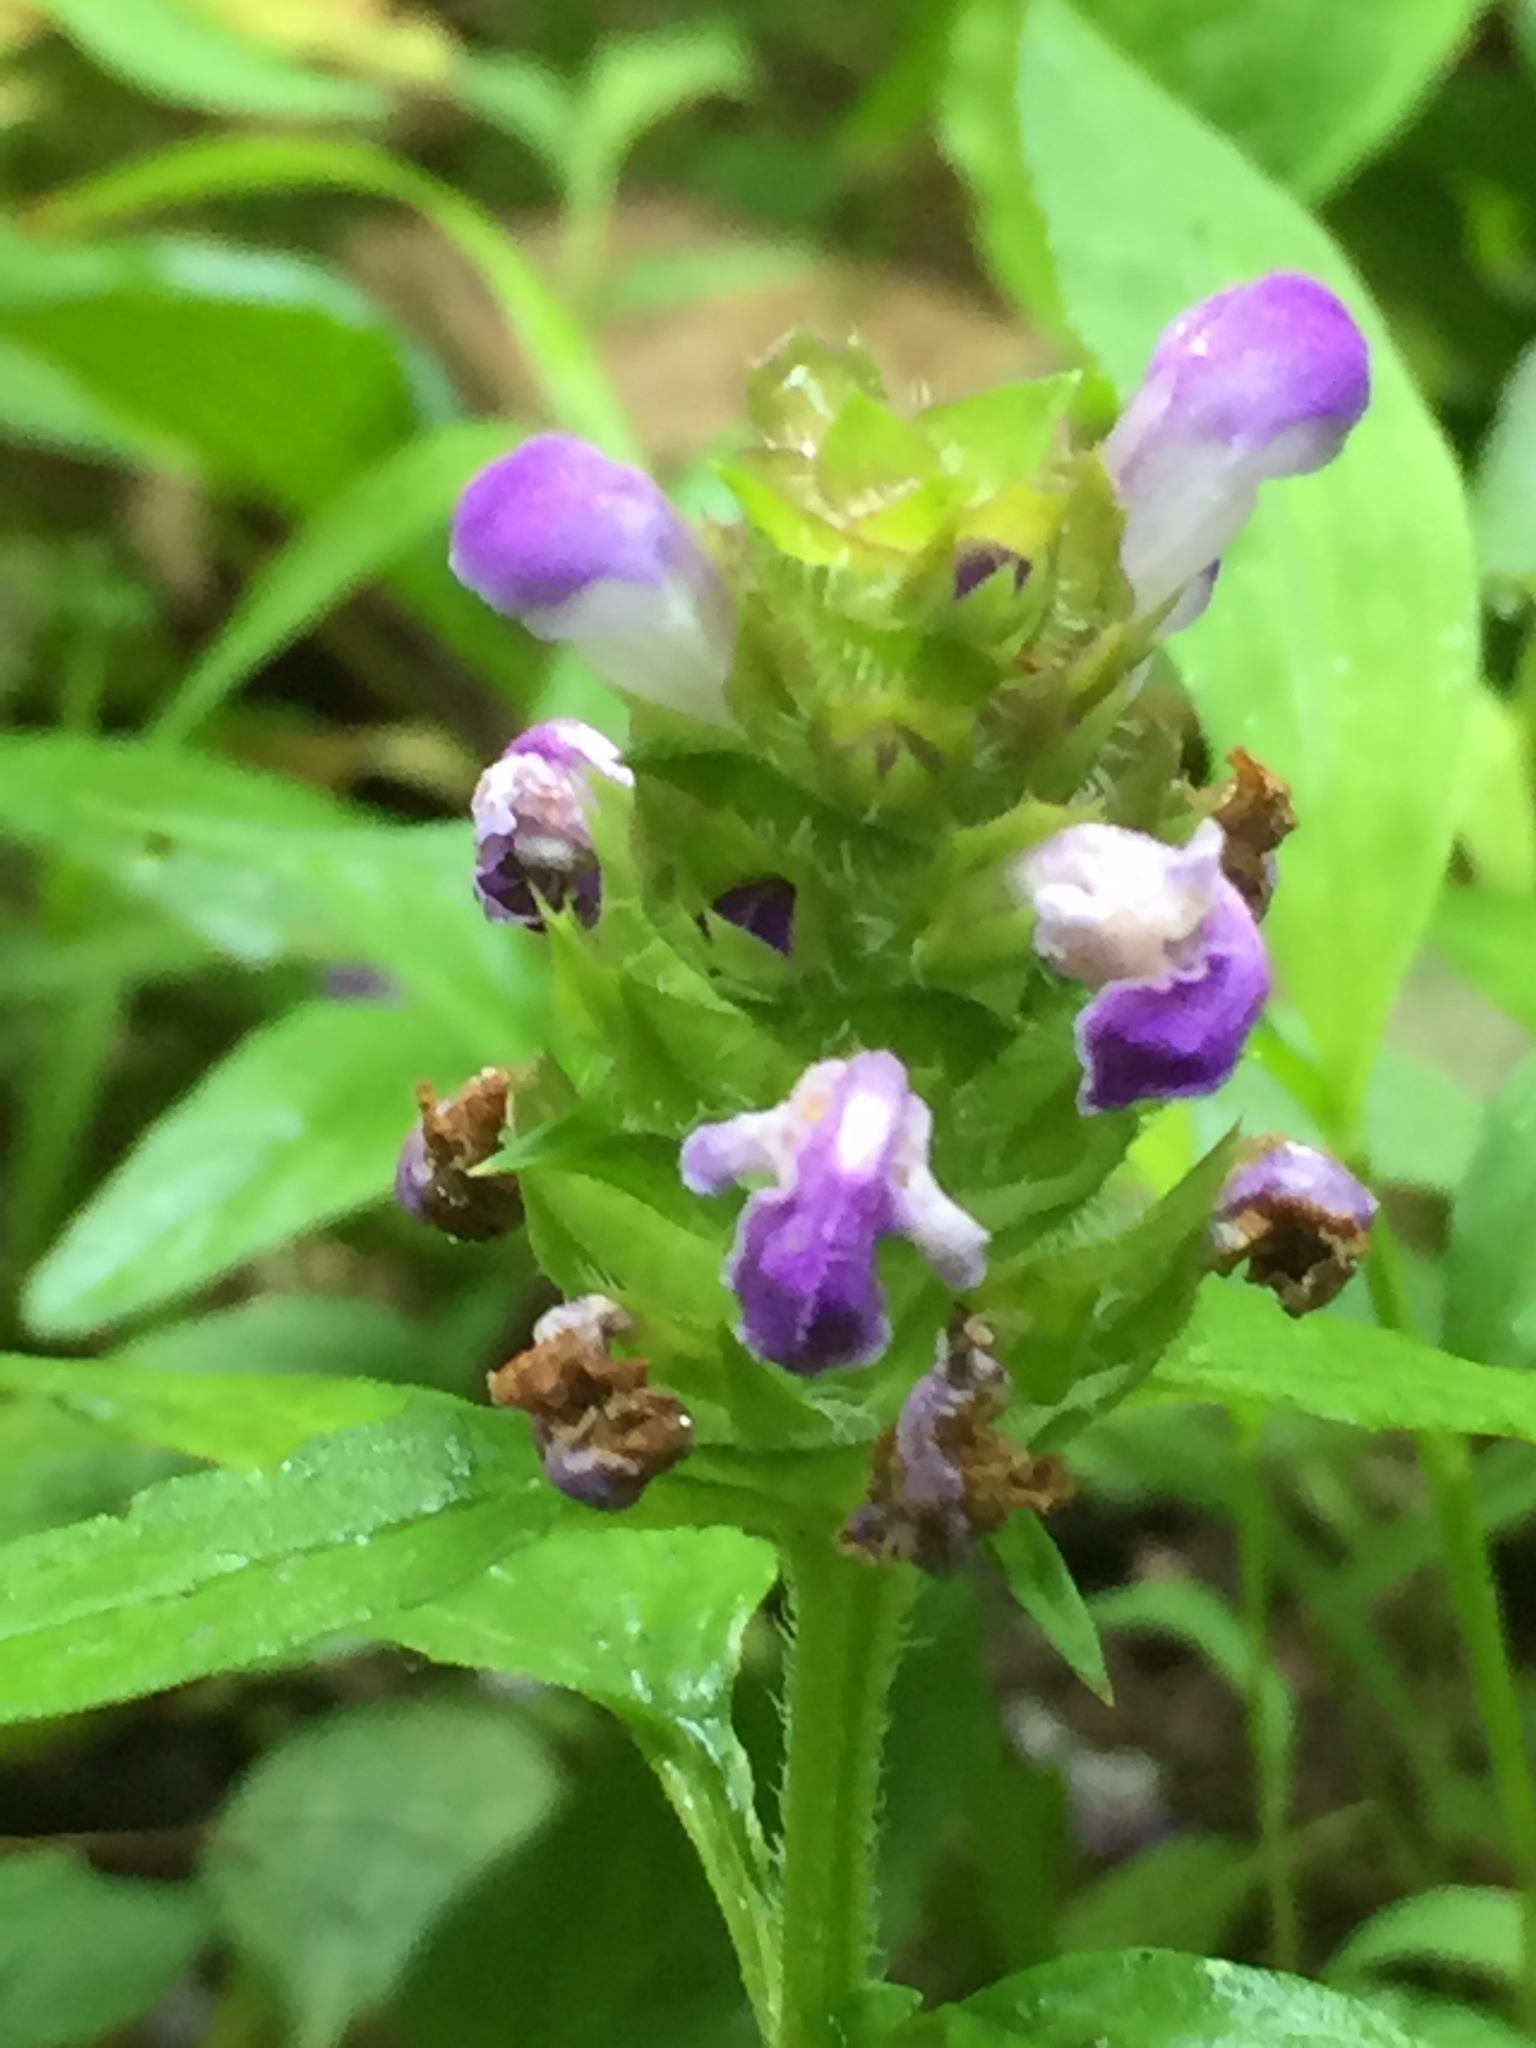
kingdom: Plantae
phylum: Tracheophyta
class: Magnoliopsida
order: Lamiales
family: Lamiaceae
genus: Prunella
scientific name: Prunella vulgaris
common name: Heal-all
